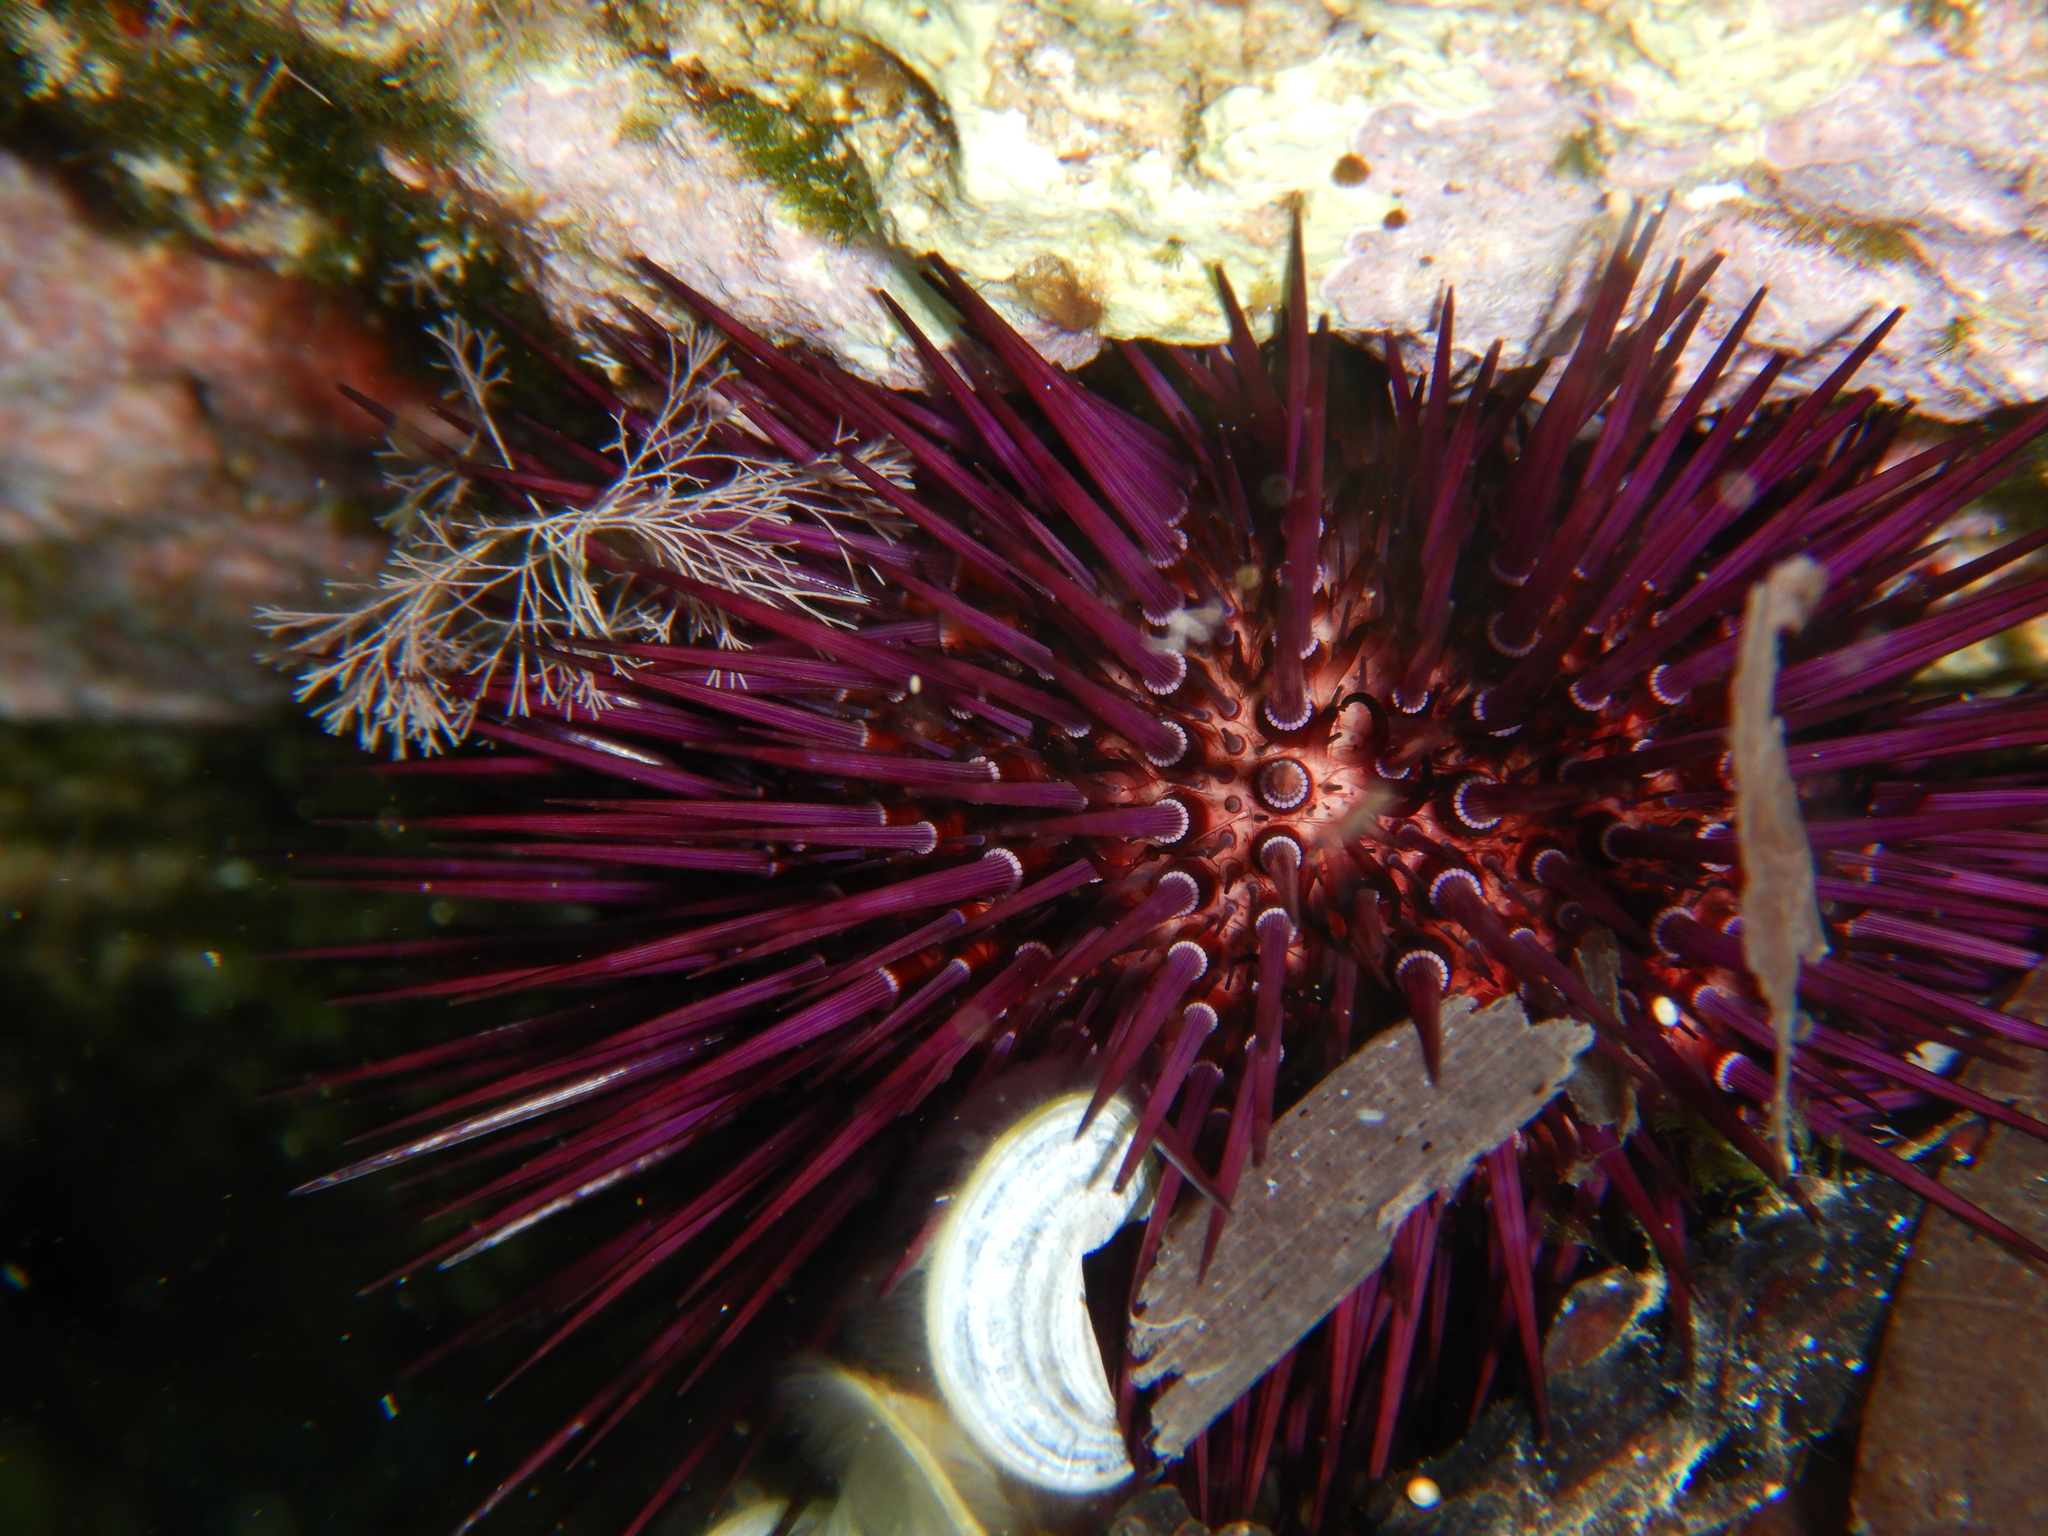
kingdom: Animalia
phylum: Echinodermata
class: Echinoidea
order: Camarodonta
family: Parechinidae
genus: Paracentrotus
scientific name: Paracentrotus lividus
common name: Purple sea urchin
